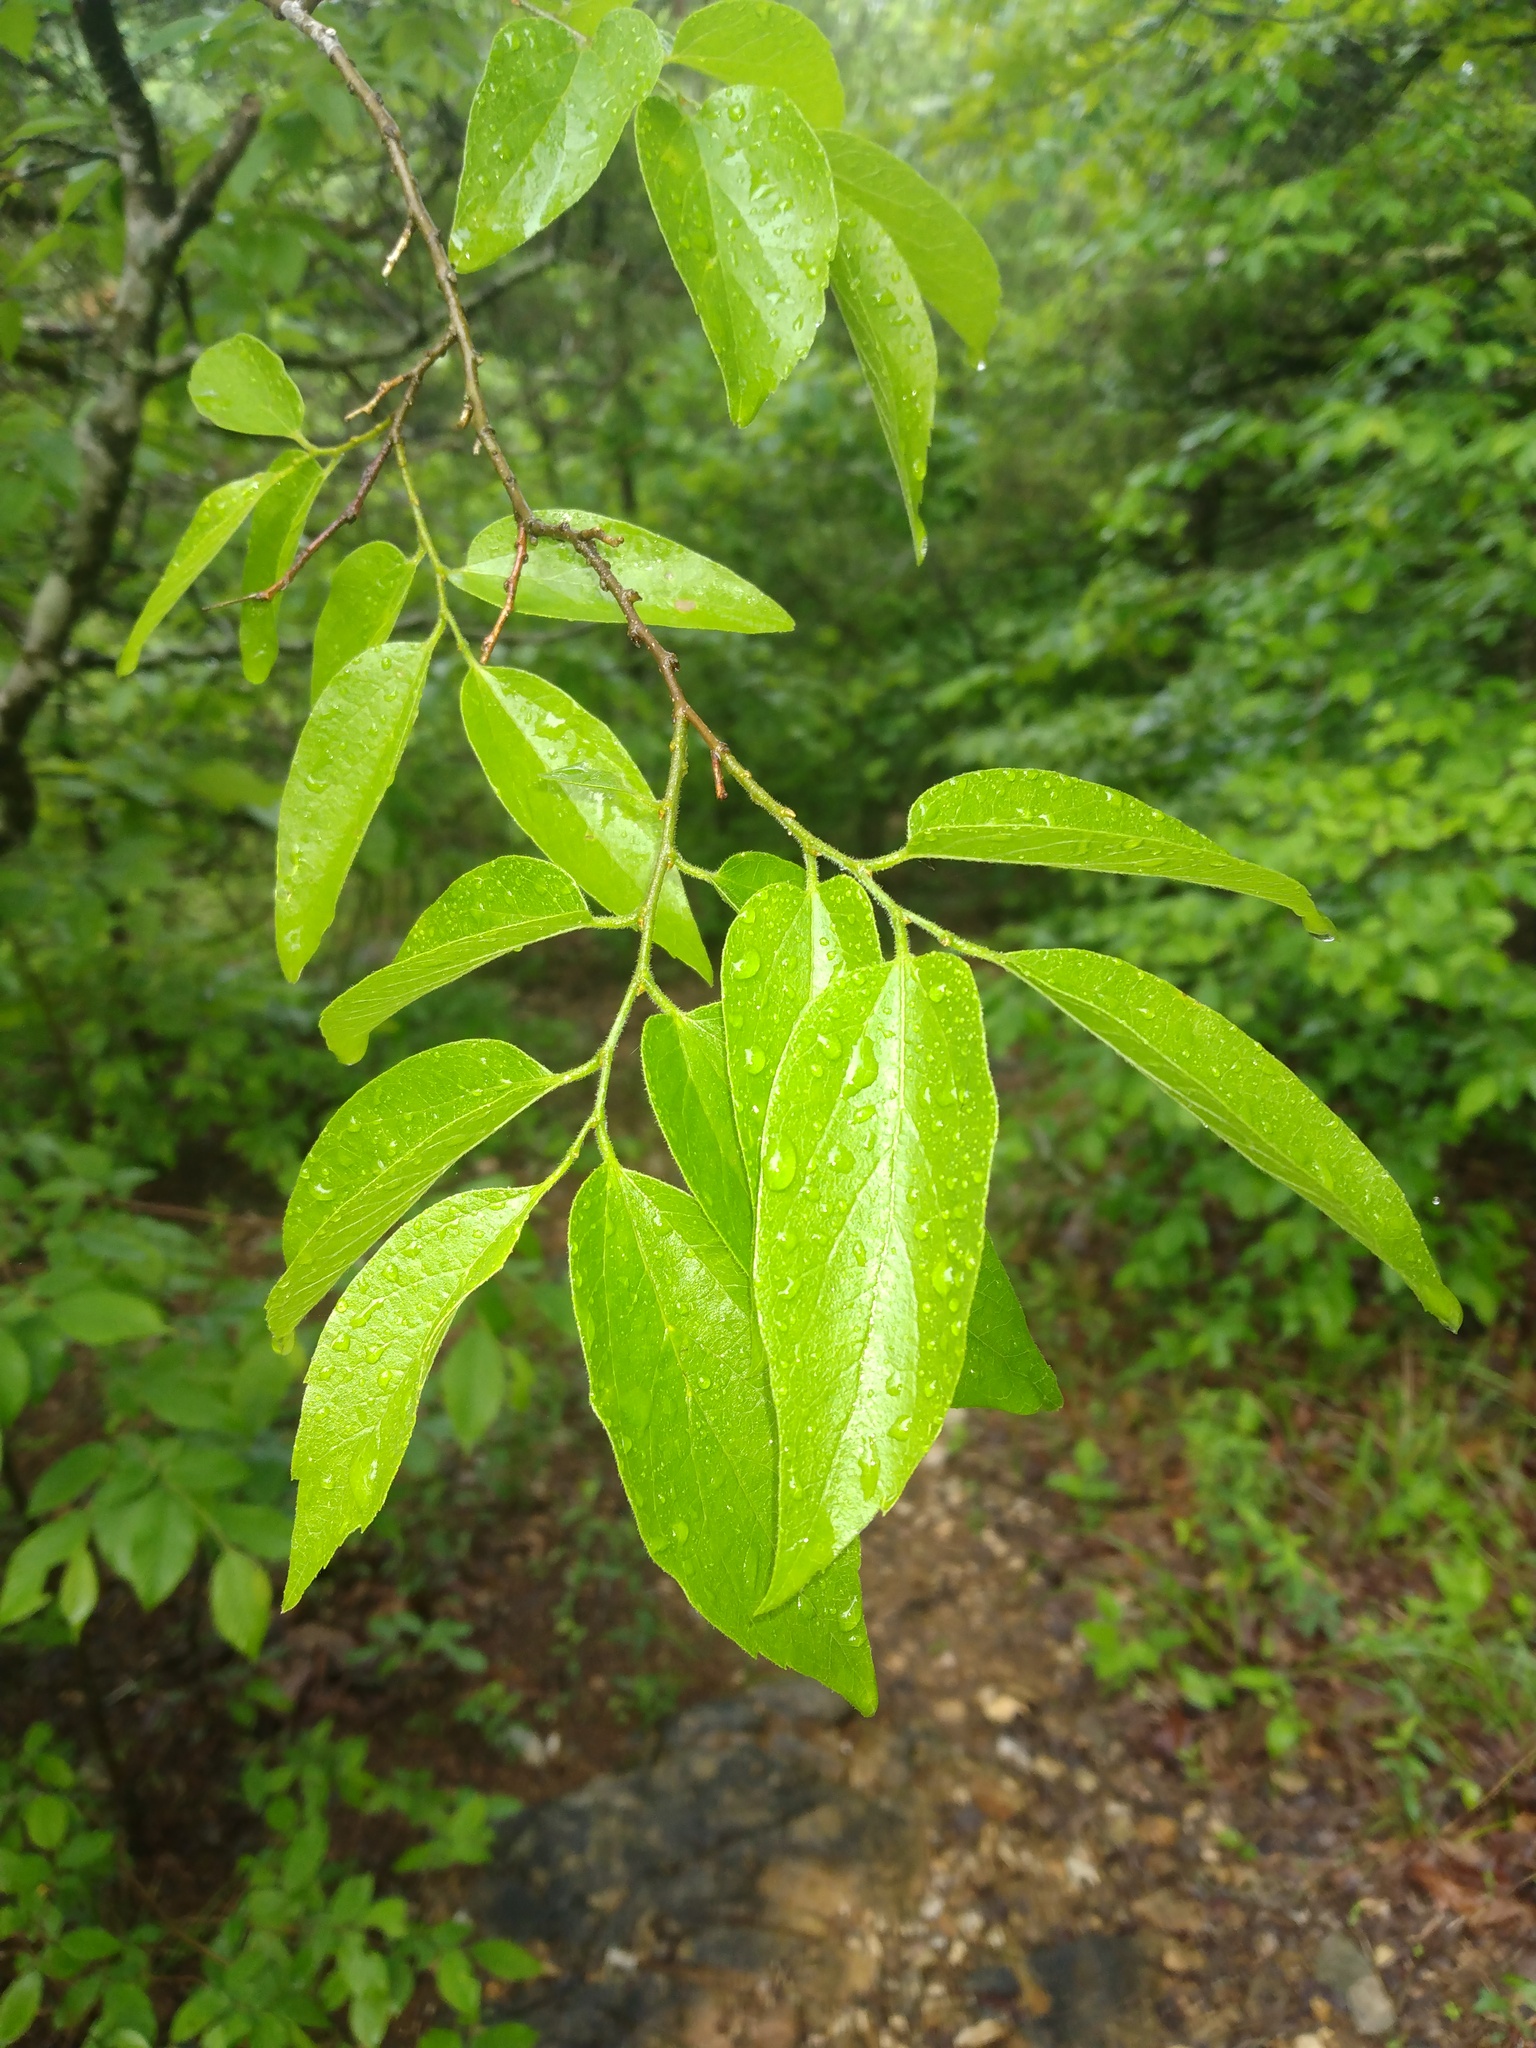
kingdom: Plantae
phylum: Tracheophyta
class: Magnoliopsida
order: Rosales
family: Cannabaceae
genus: Celtis
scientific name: Celtis laevigata
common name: Sugarberry
